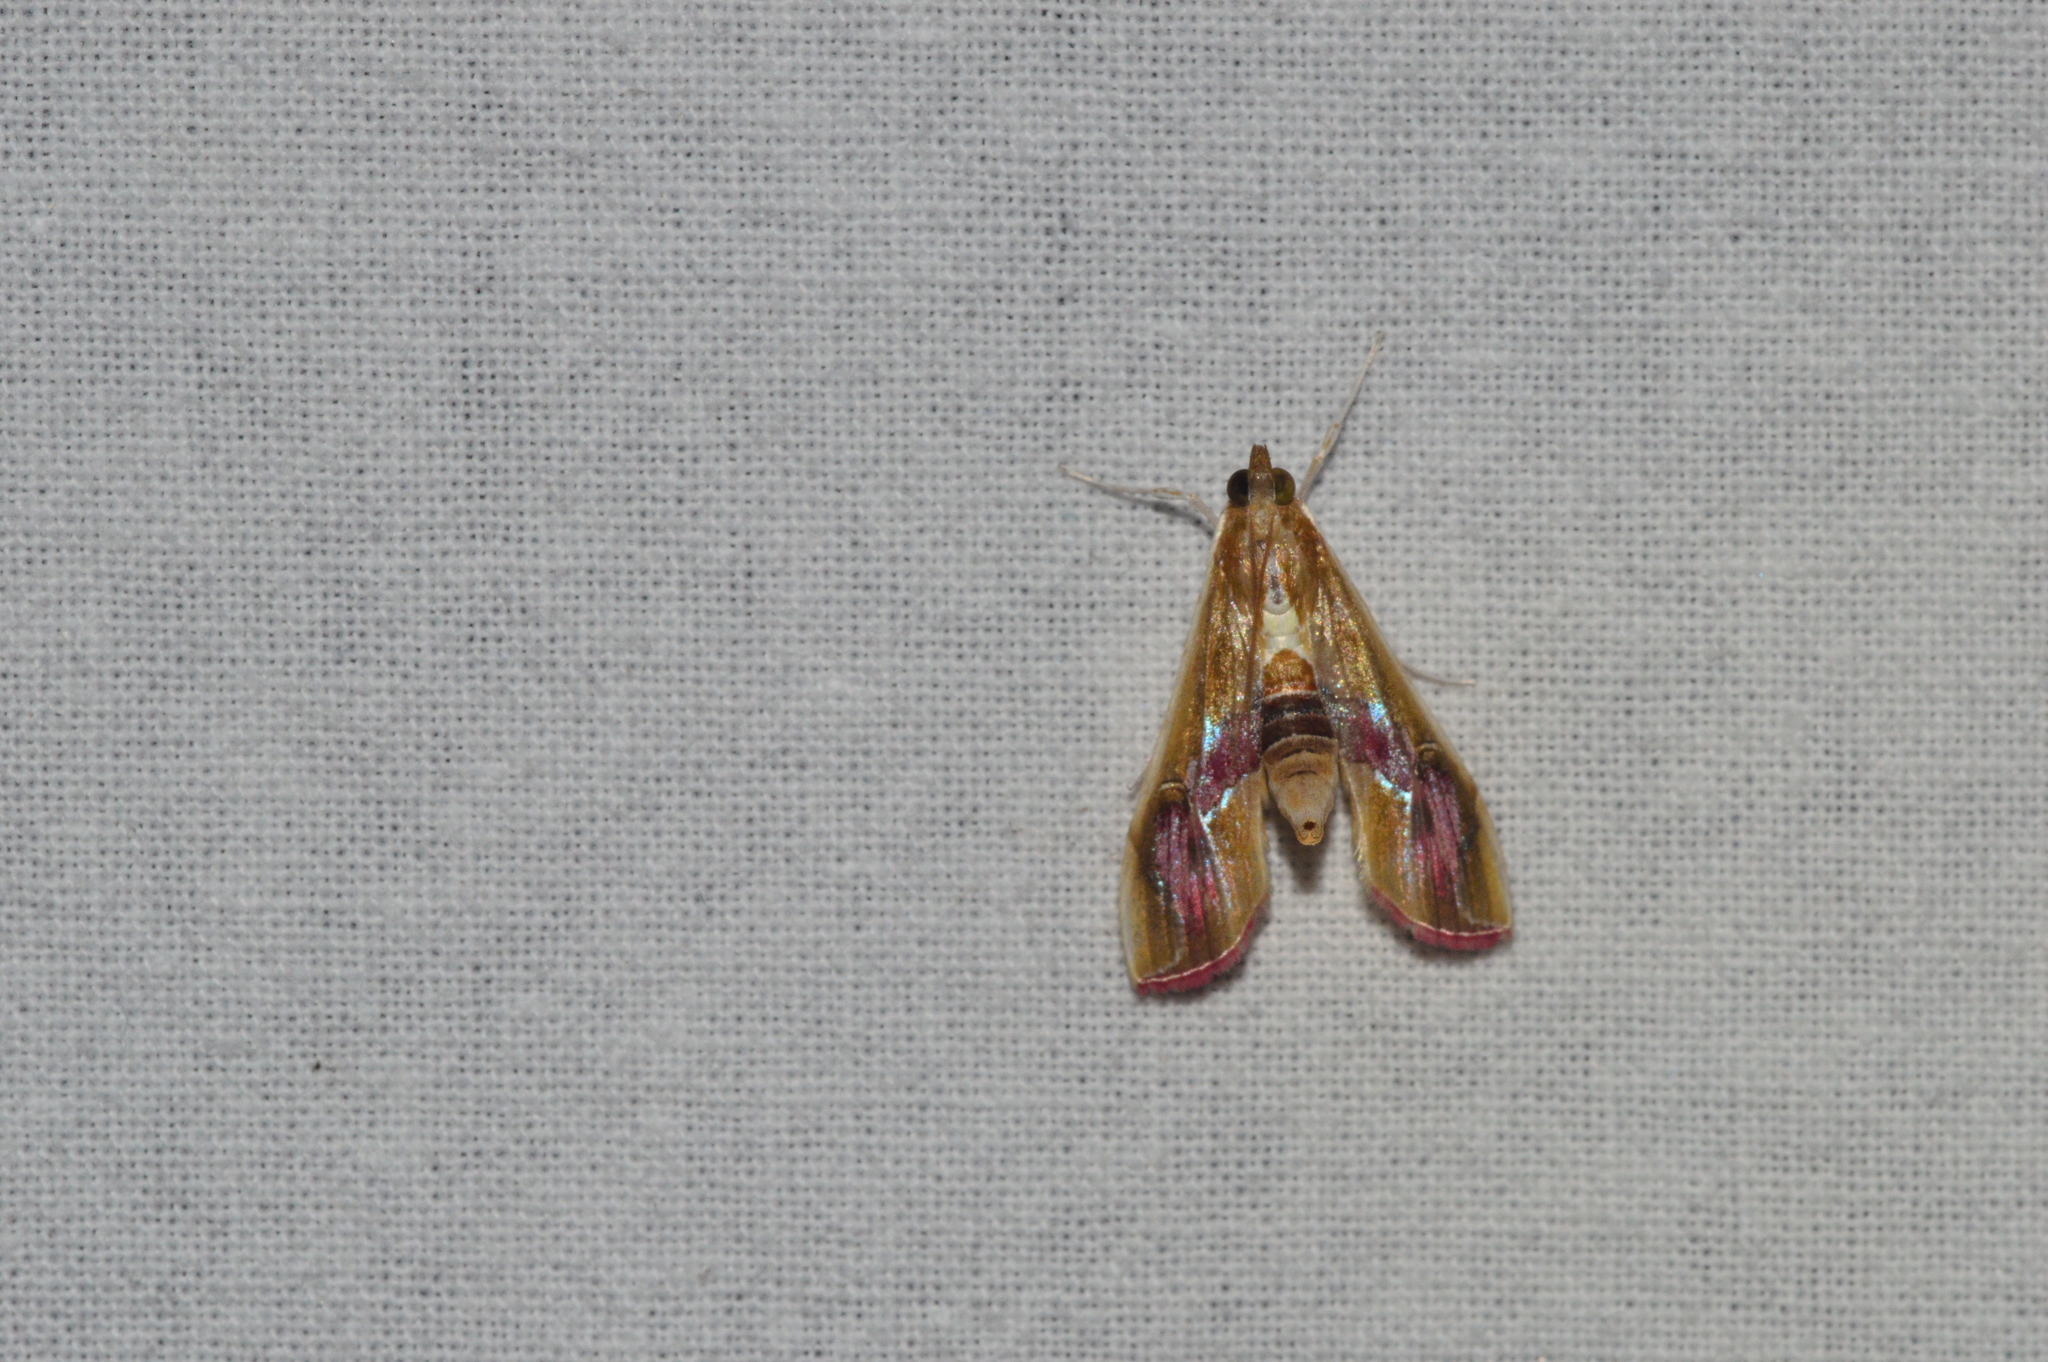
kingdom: Animalia
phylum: Arthropoda
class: Insecta
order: Lepidoptera
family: Crambidae
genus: Agathodes
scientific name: Agathodes ostentalis
